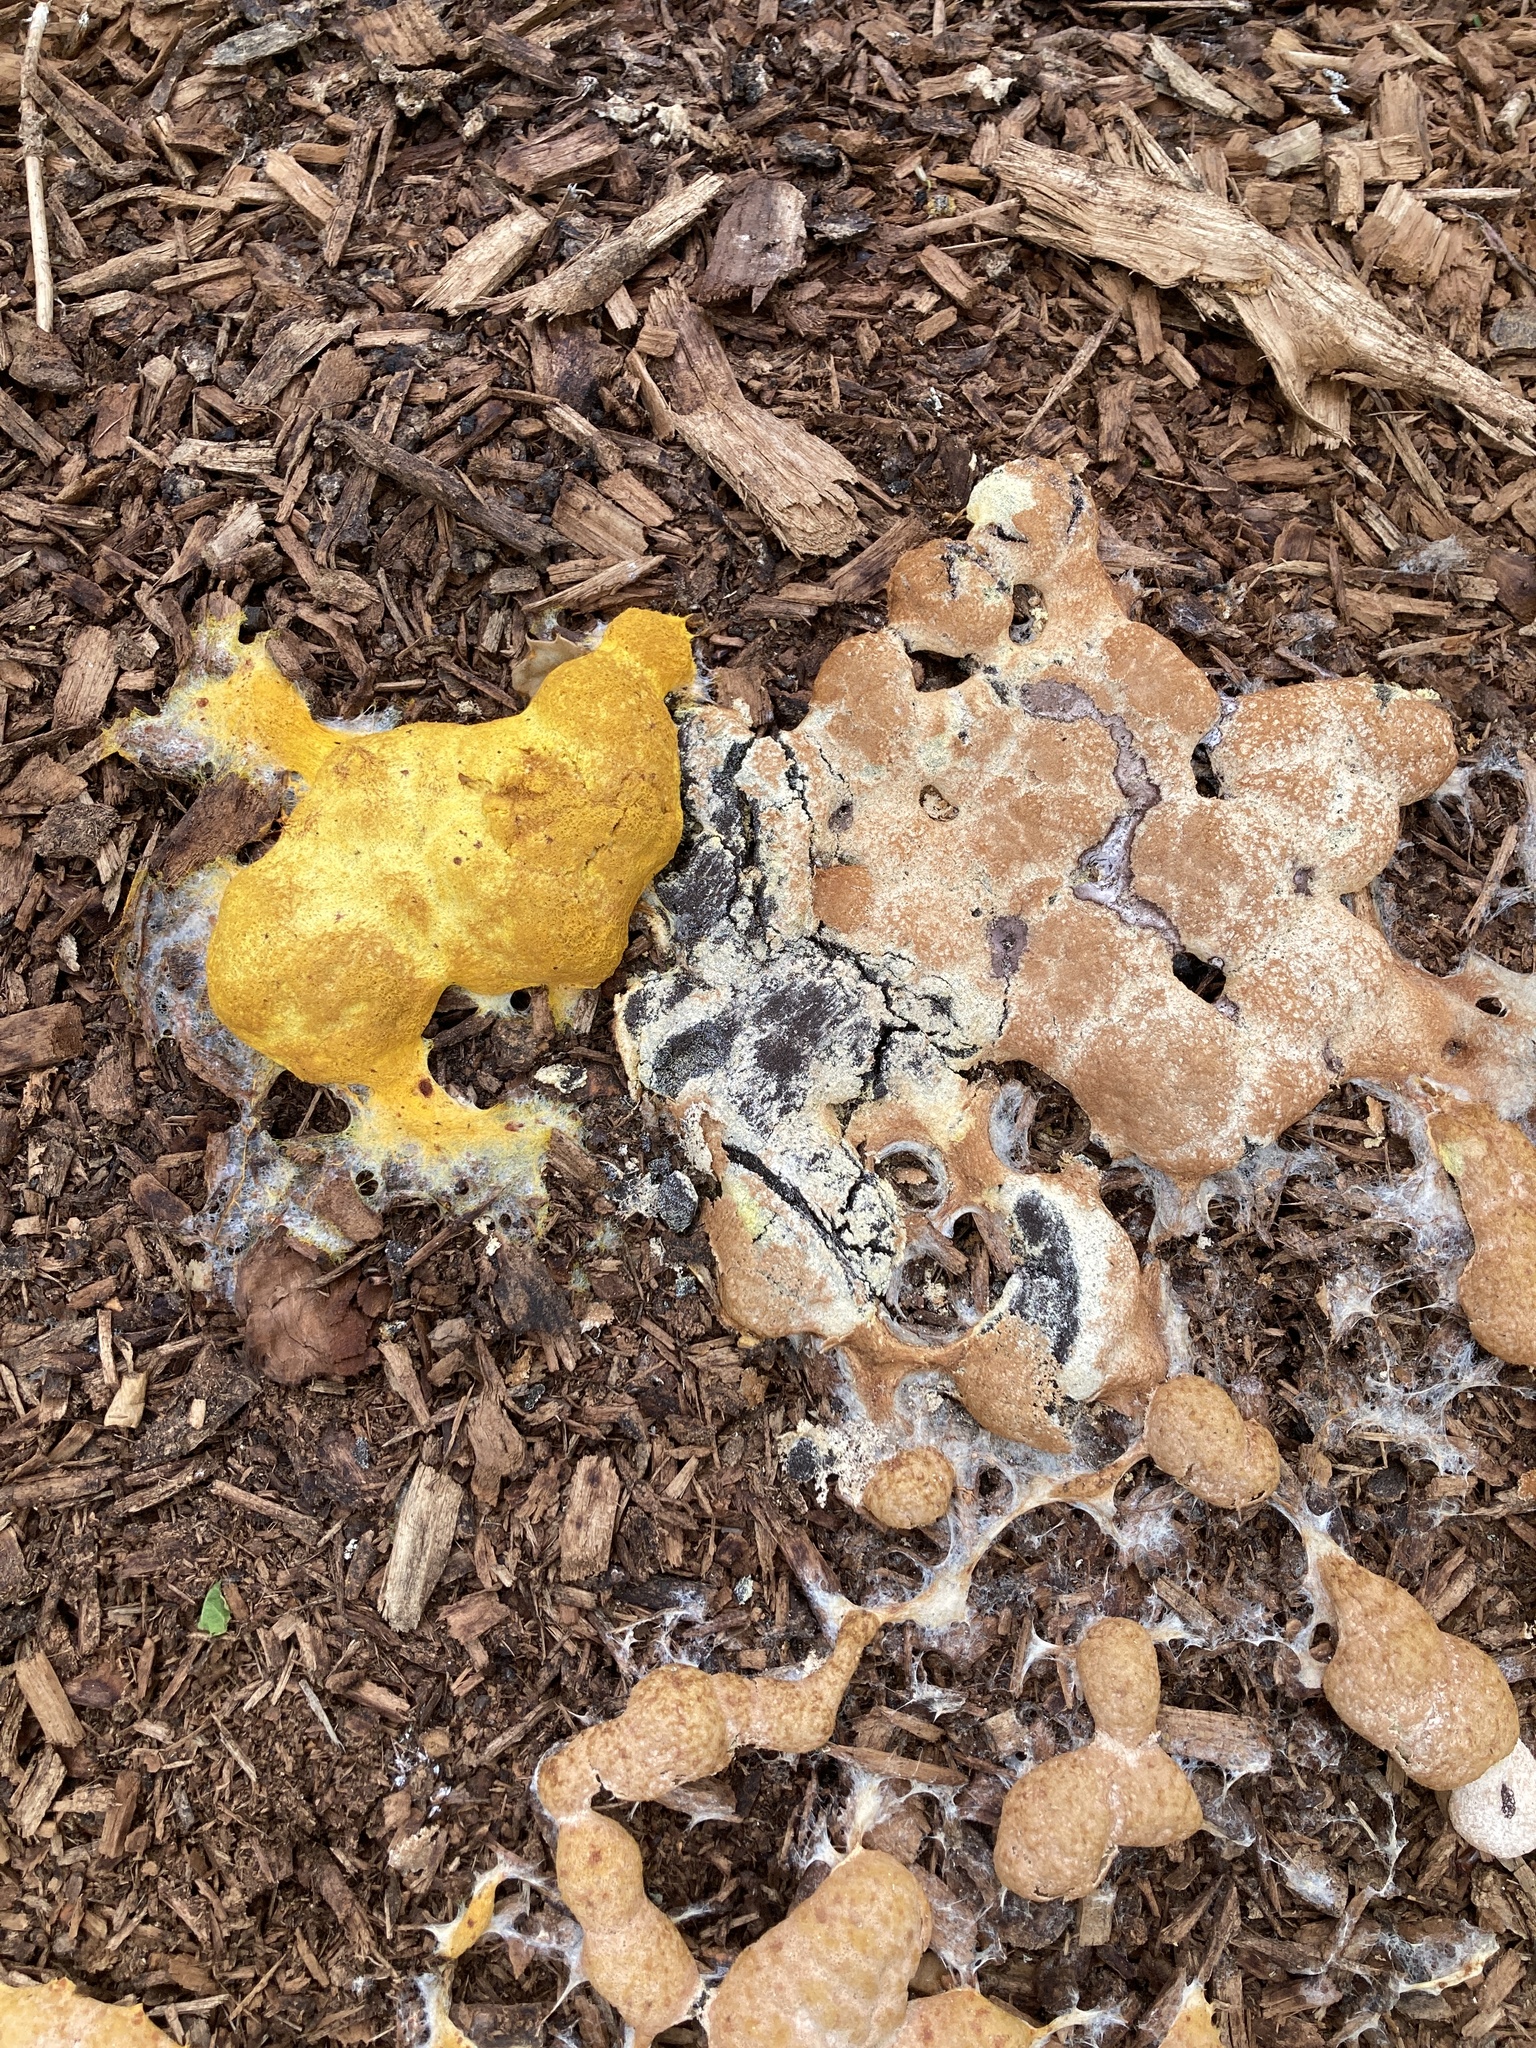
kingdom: Protozoa
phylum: Mycetozoa
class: Myxomycetes
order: Physarales
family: Physaraceae
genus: Fuligo
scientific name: Fuligo septica
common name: Dog vomit slime mold
